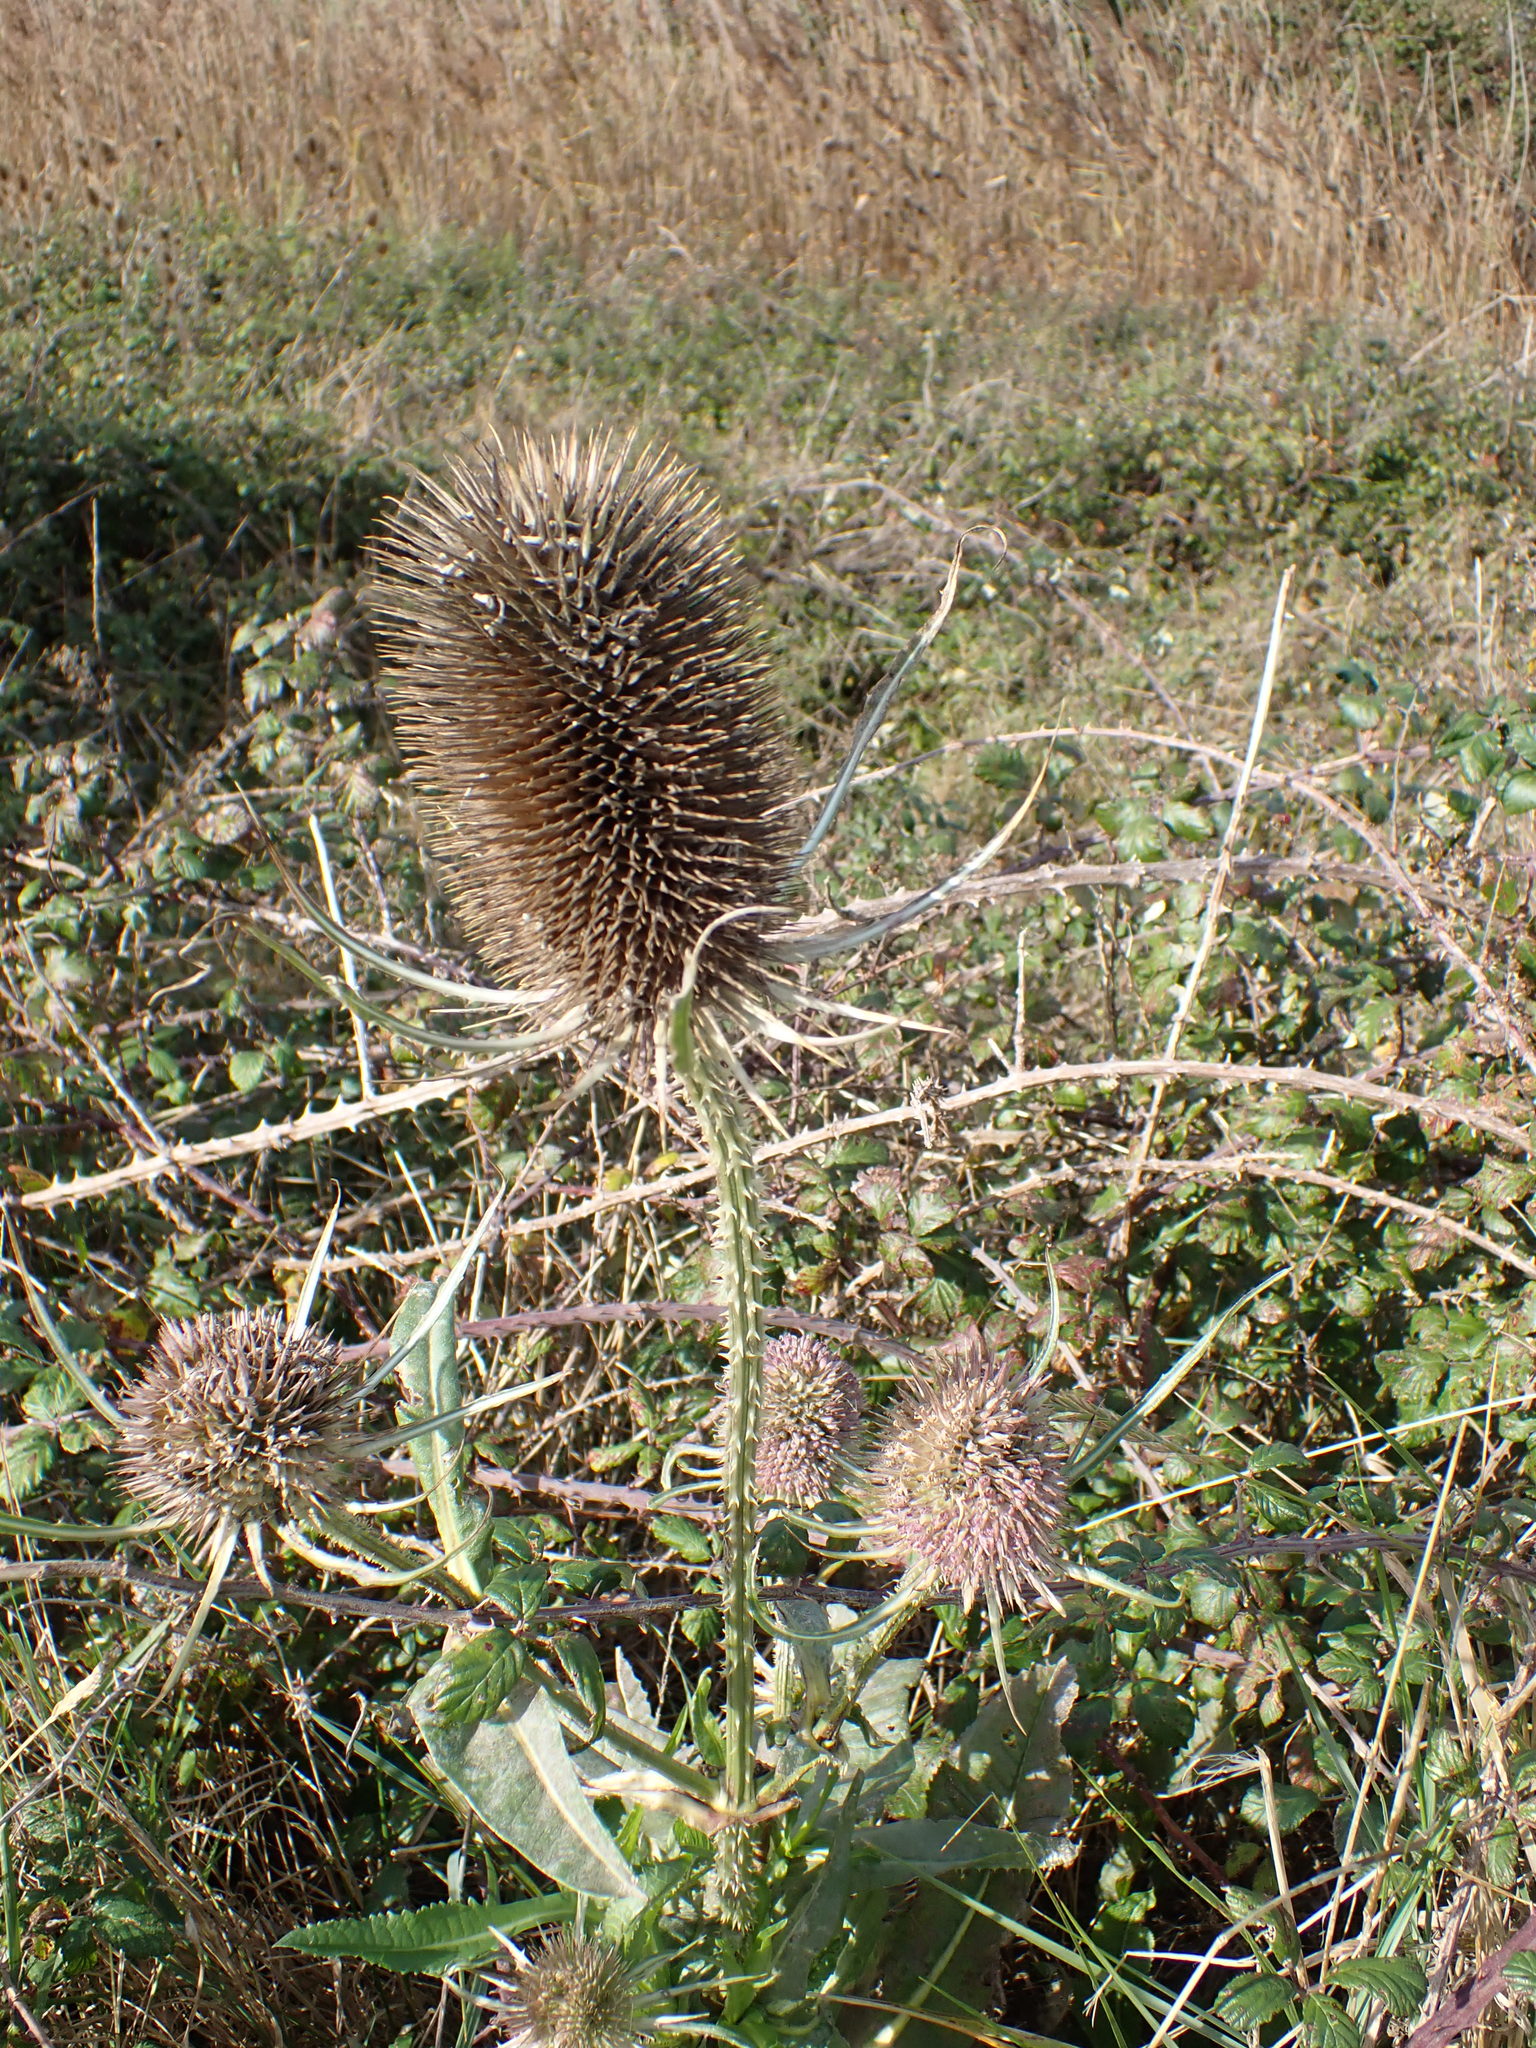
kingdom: Plantae
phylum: Tracheophyta
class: Magnoliopsida
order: Dipsacales
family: Caprifoliaceae
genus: Dipsacus
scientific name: Dipsacus fullonum
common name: Teasel
